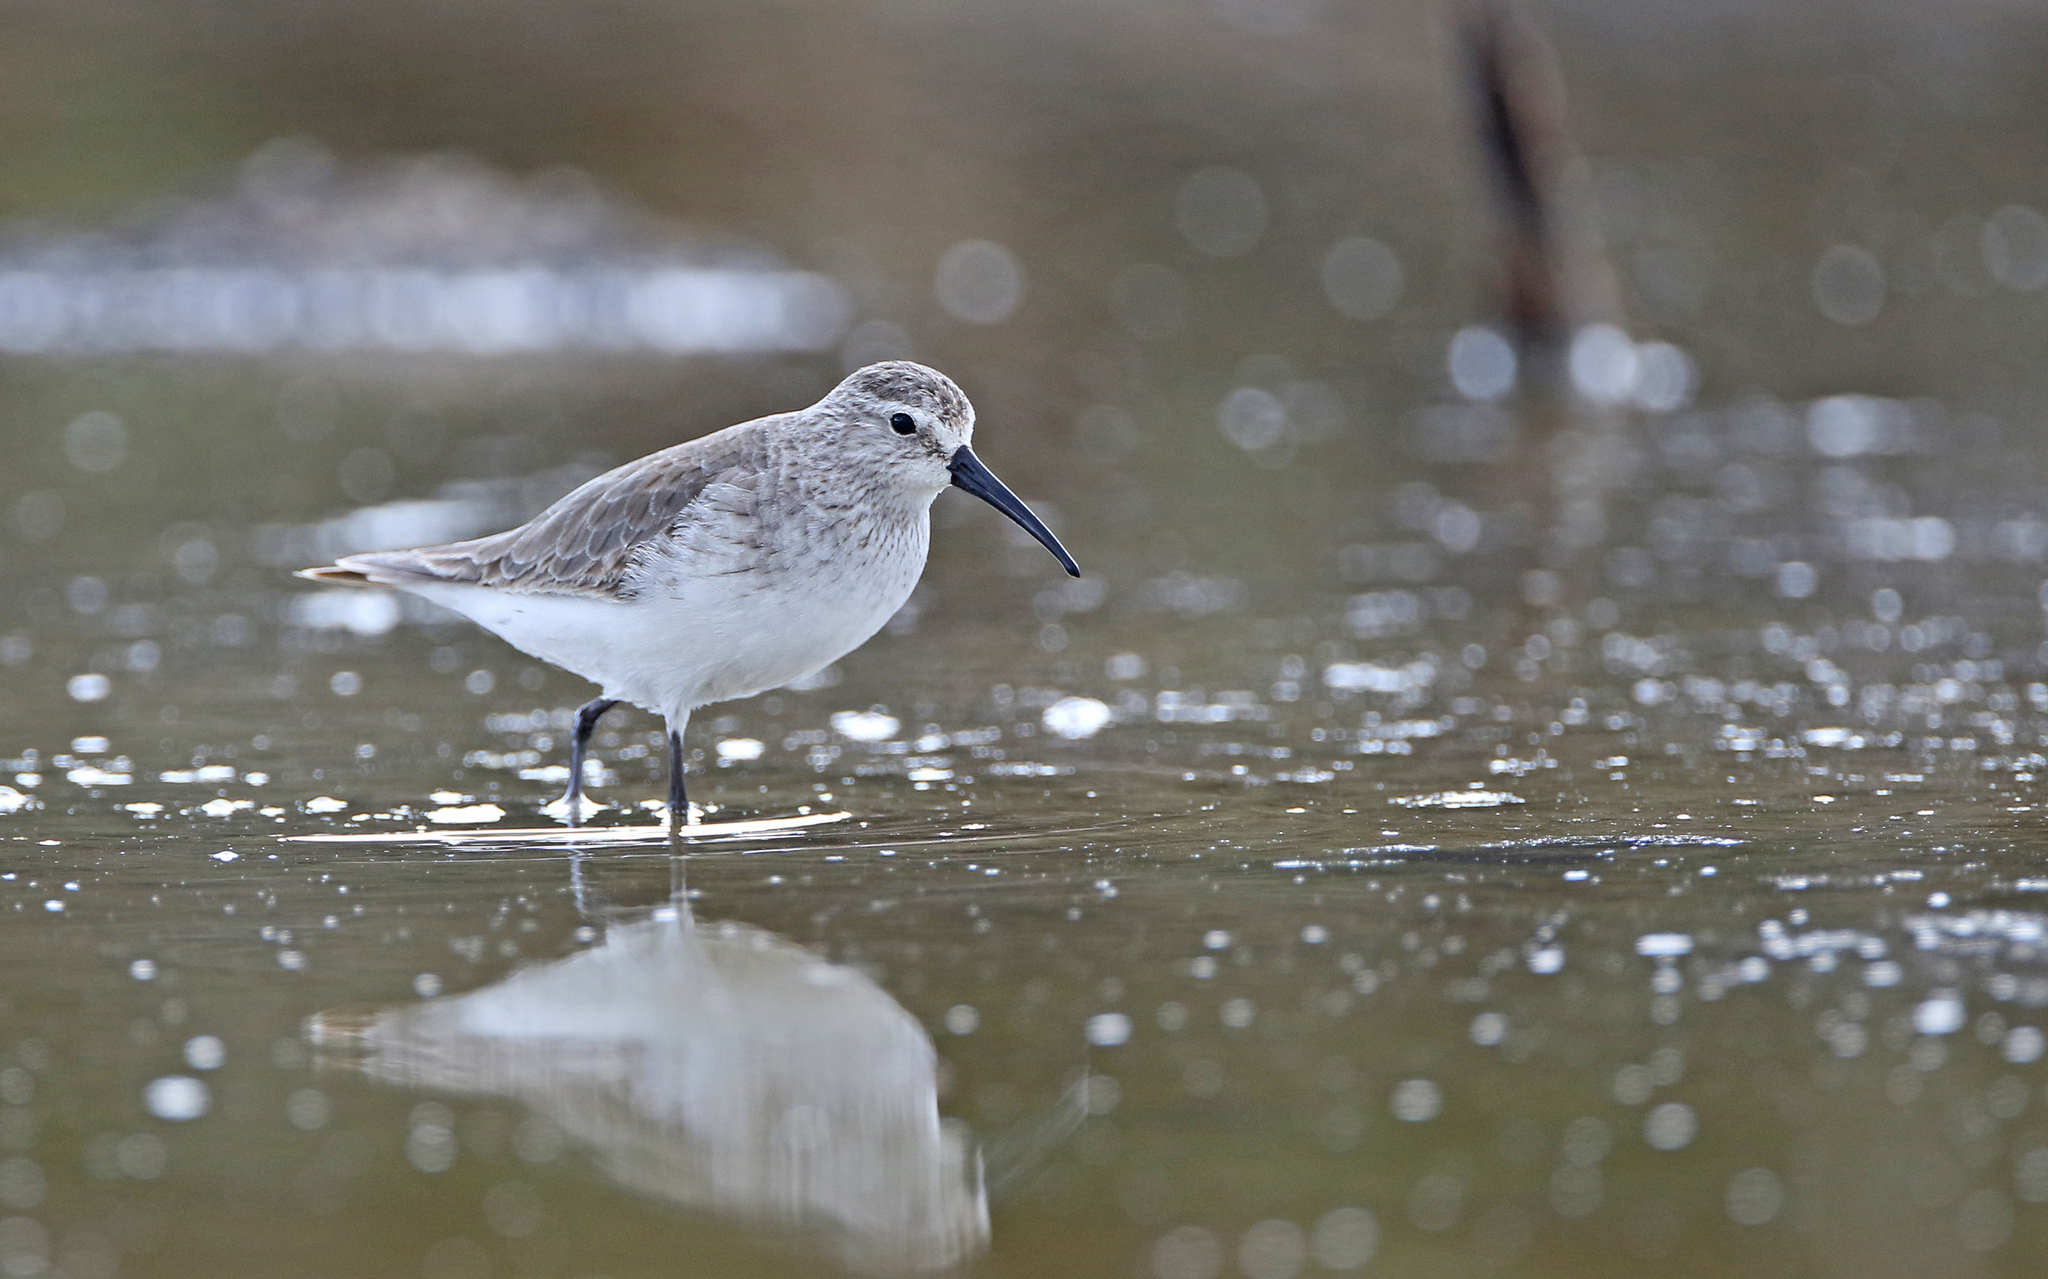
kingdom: Animalia
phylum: Chordata
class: Aves
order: Charadriiformes
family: Scolopacidae
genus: Calidris
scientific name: Calidris ferruginea
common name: Curlew sandpiper
